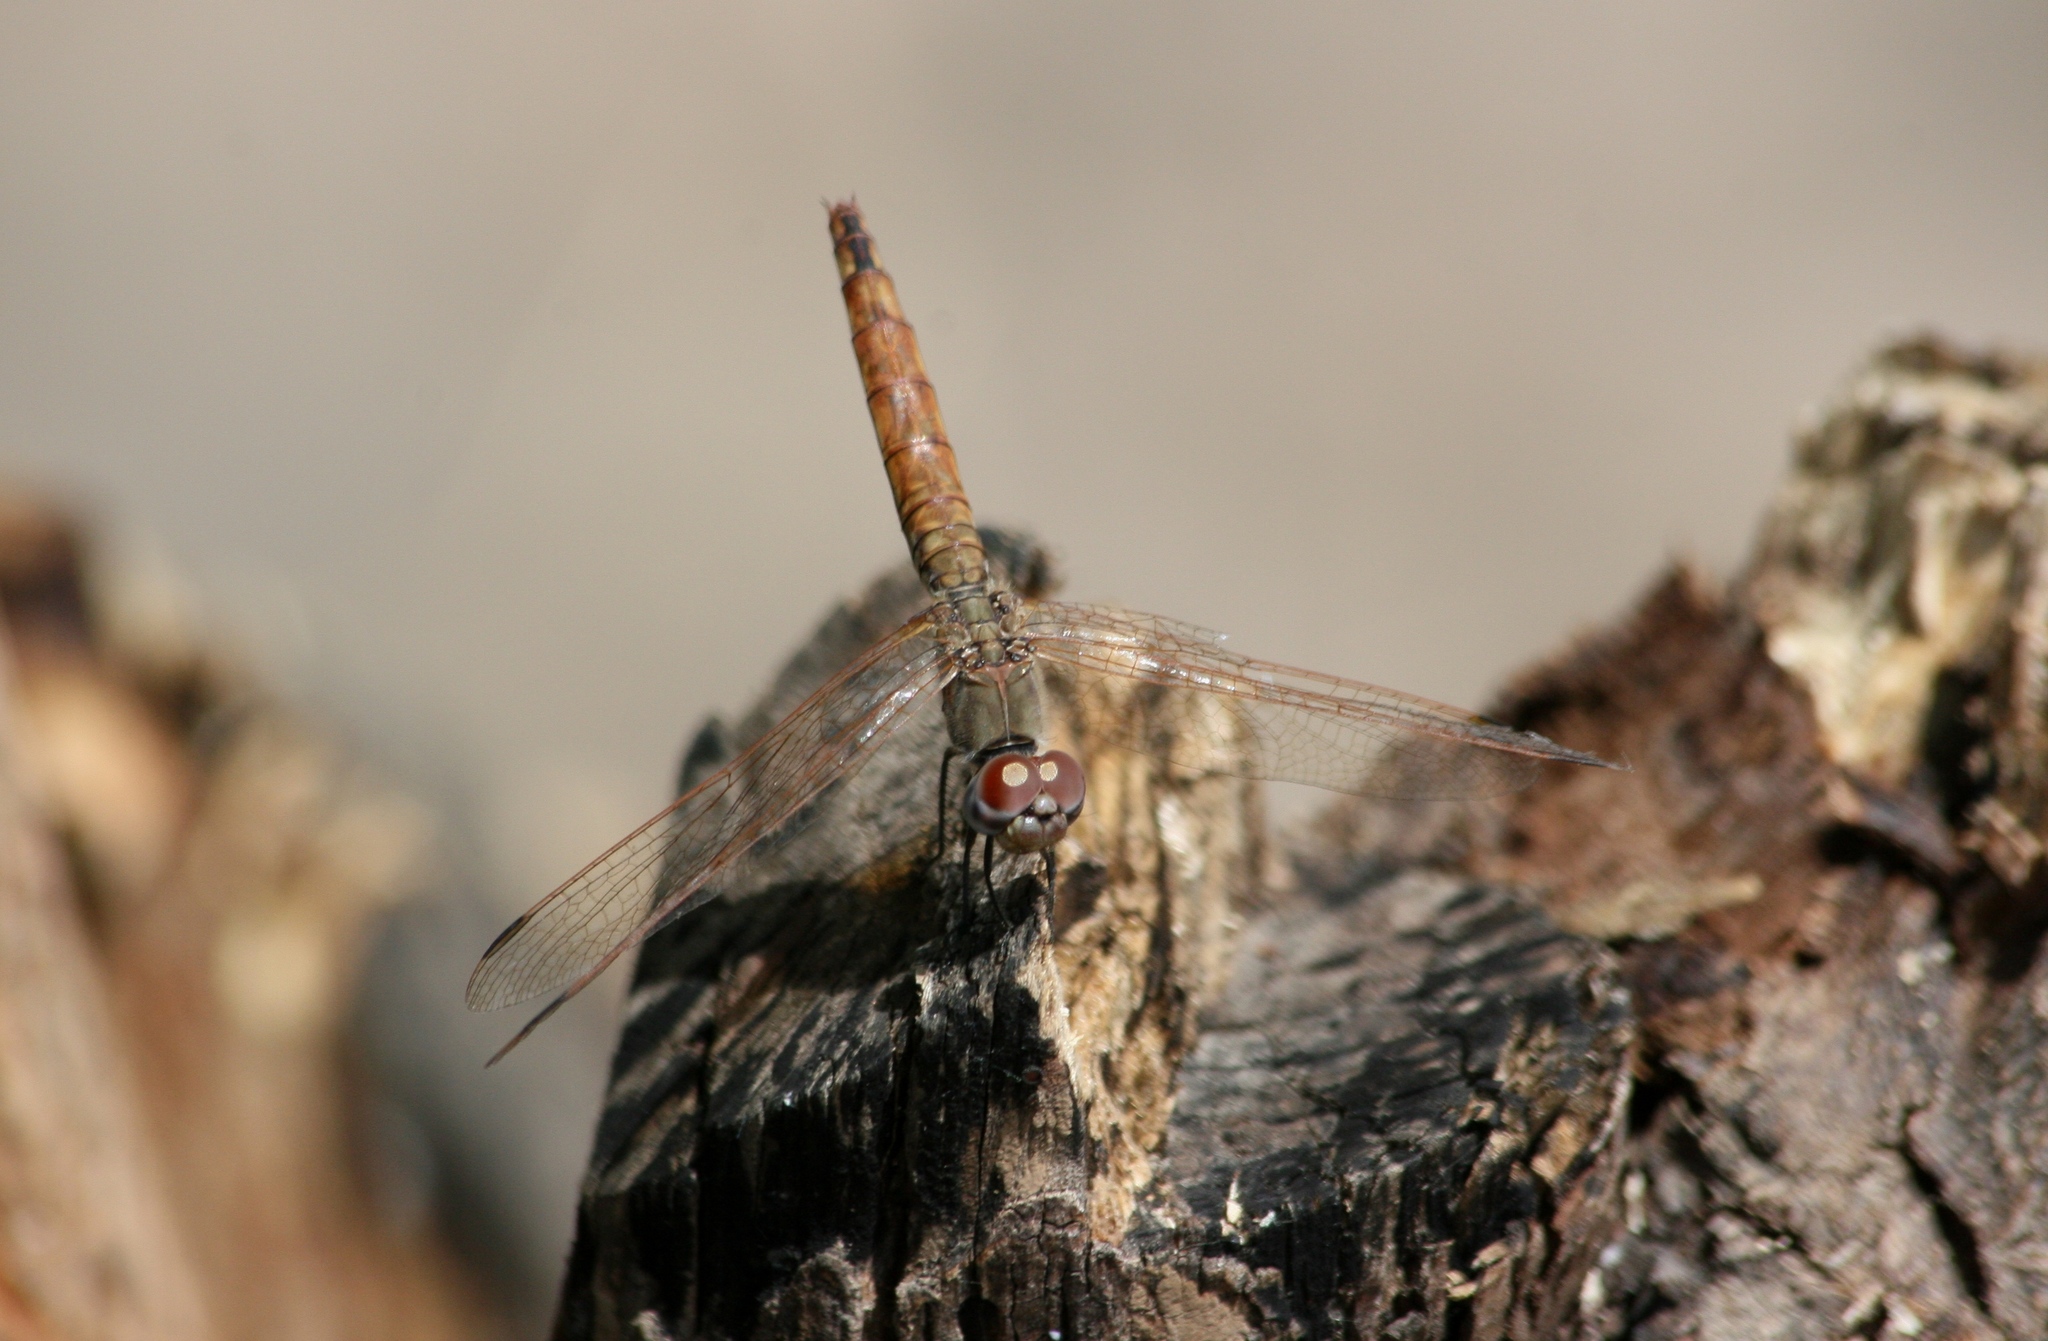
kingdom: Animalia
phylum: Arthropoda
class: Insecta
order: Odonata
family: Libellulidae
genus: Trithemis
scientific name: Trithemis annulata
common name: Violet dropwing
